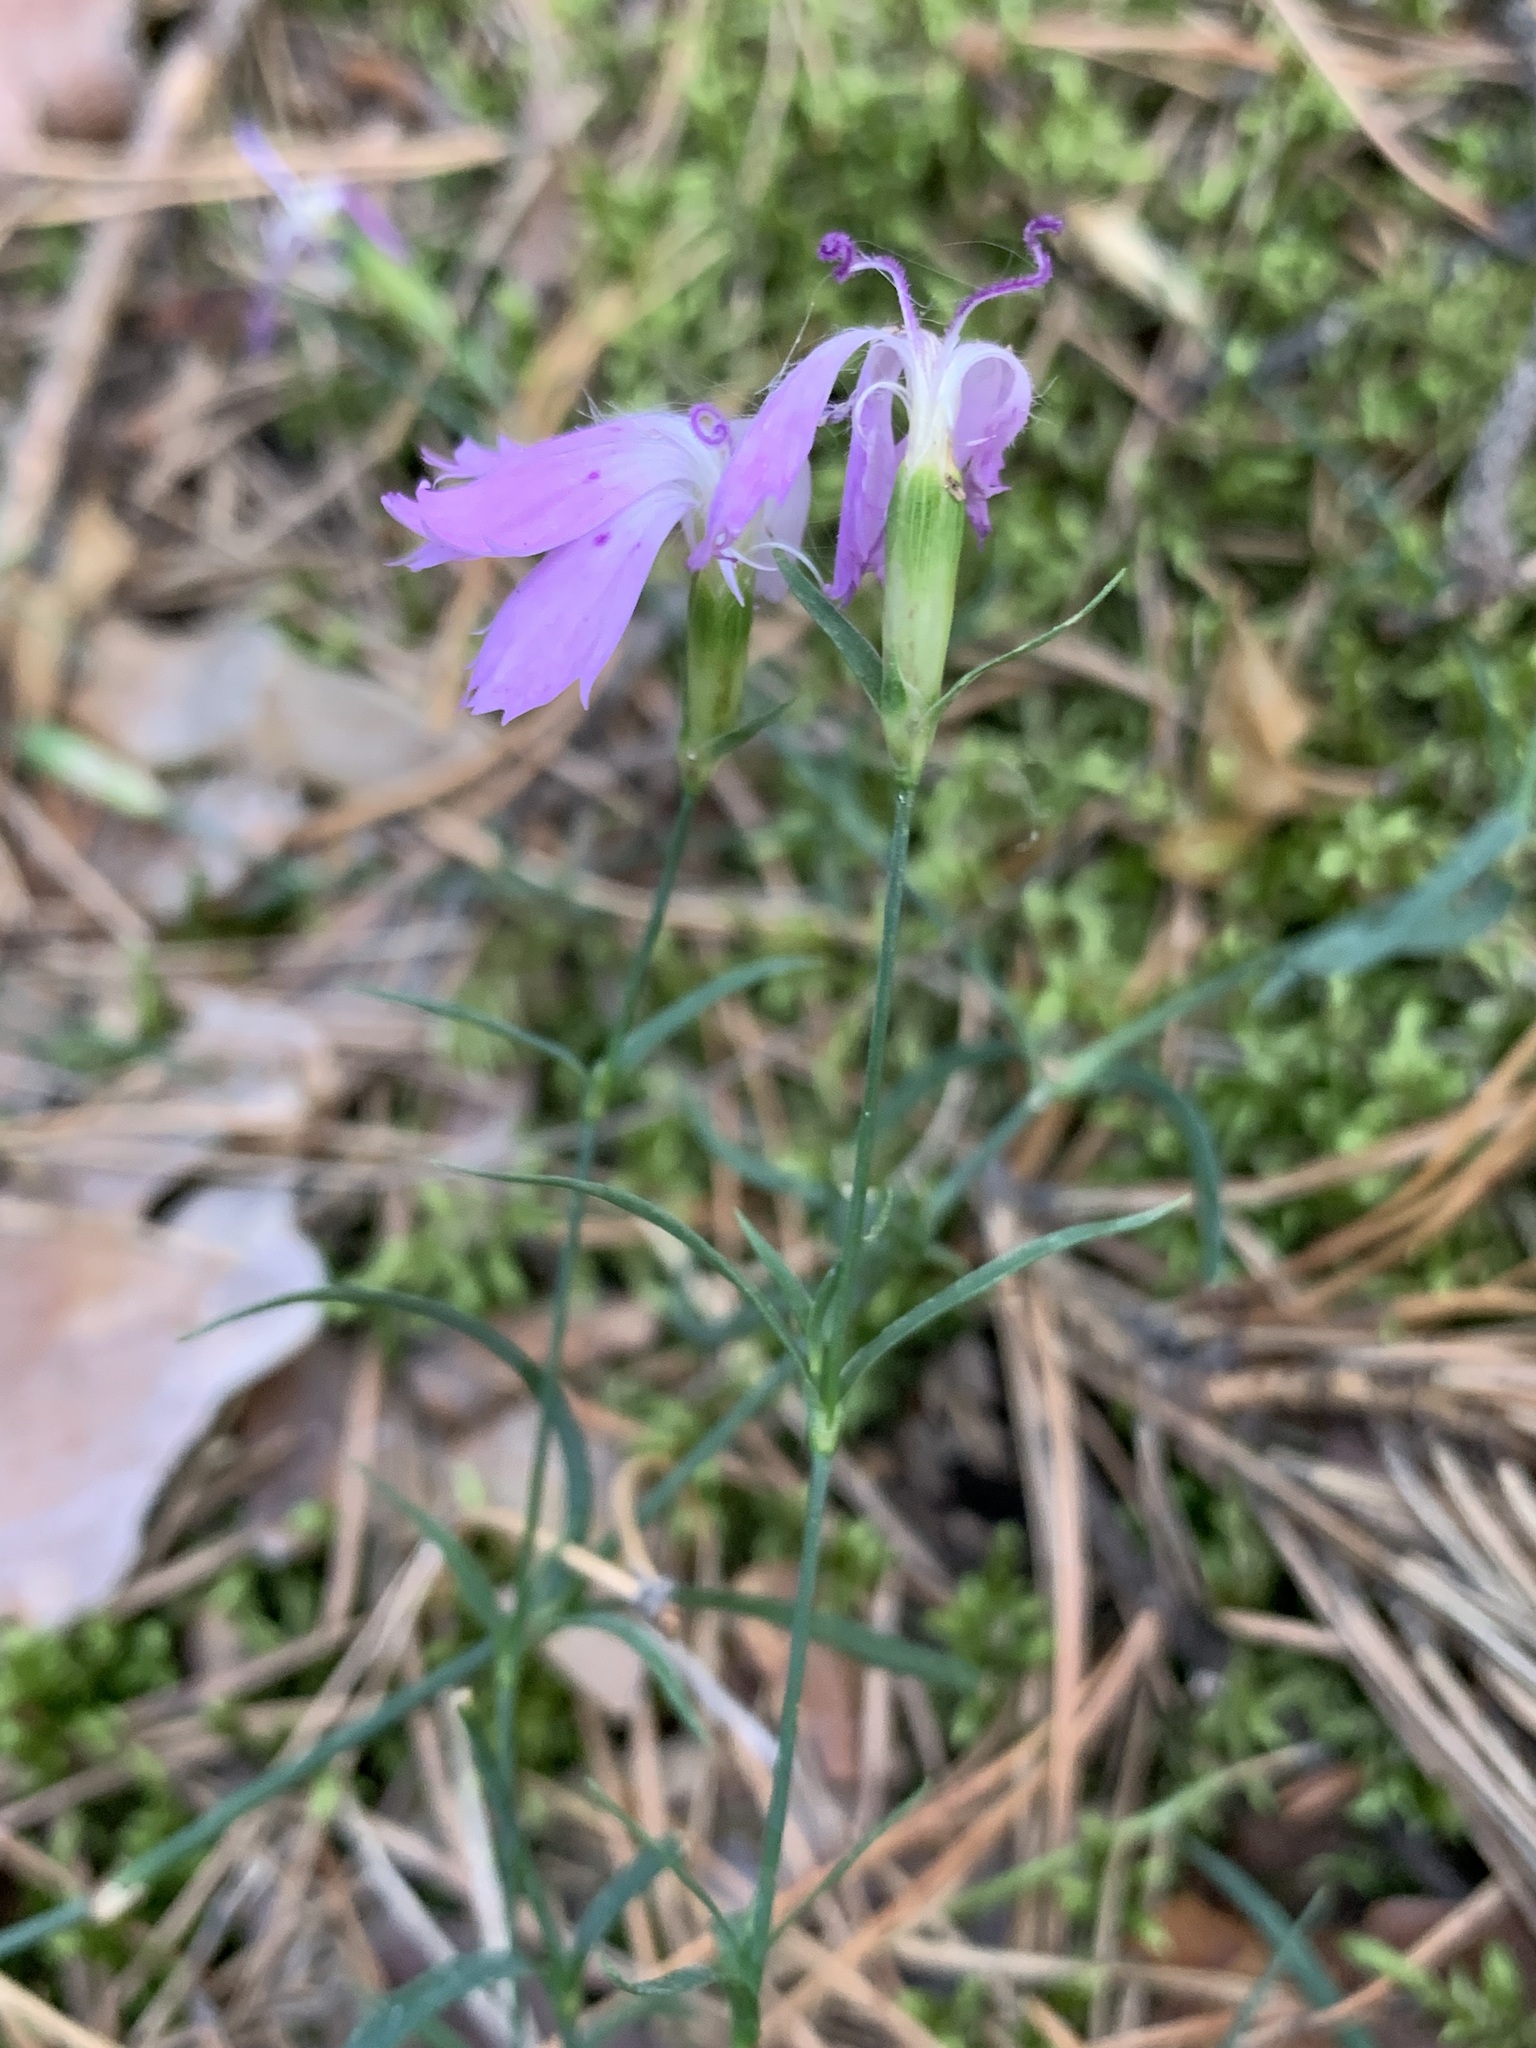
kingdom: Plantae
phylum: Tracheophyta
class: Magnoliopsida
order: Caryophyllales
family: Caryophyllaceae
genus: Dianthus
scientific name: Dianthus chinensis
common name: Rainbow pink
